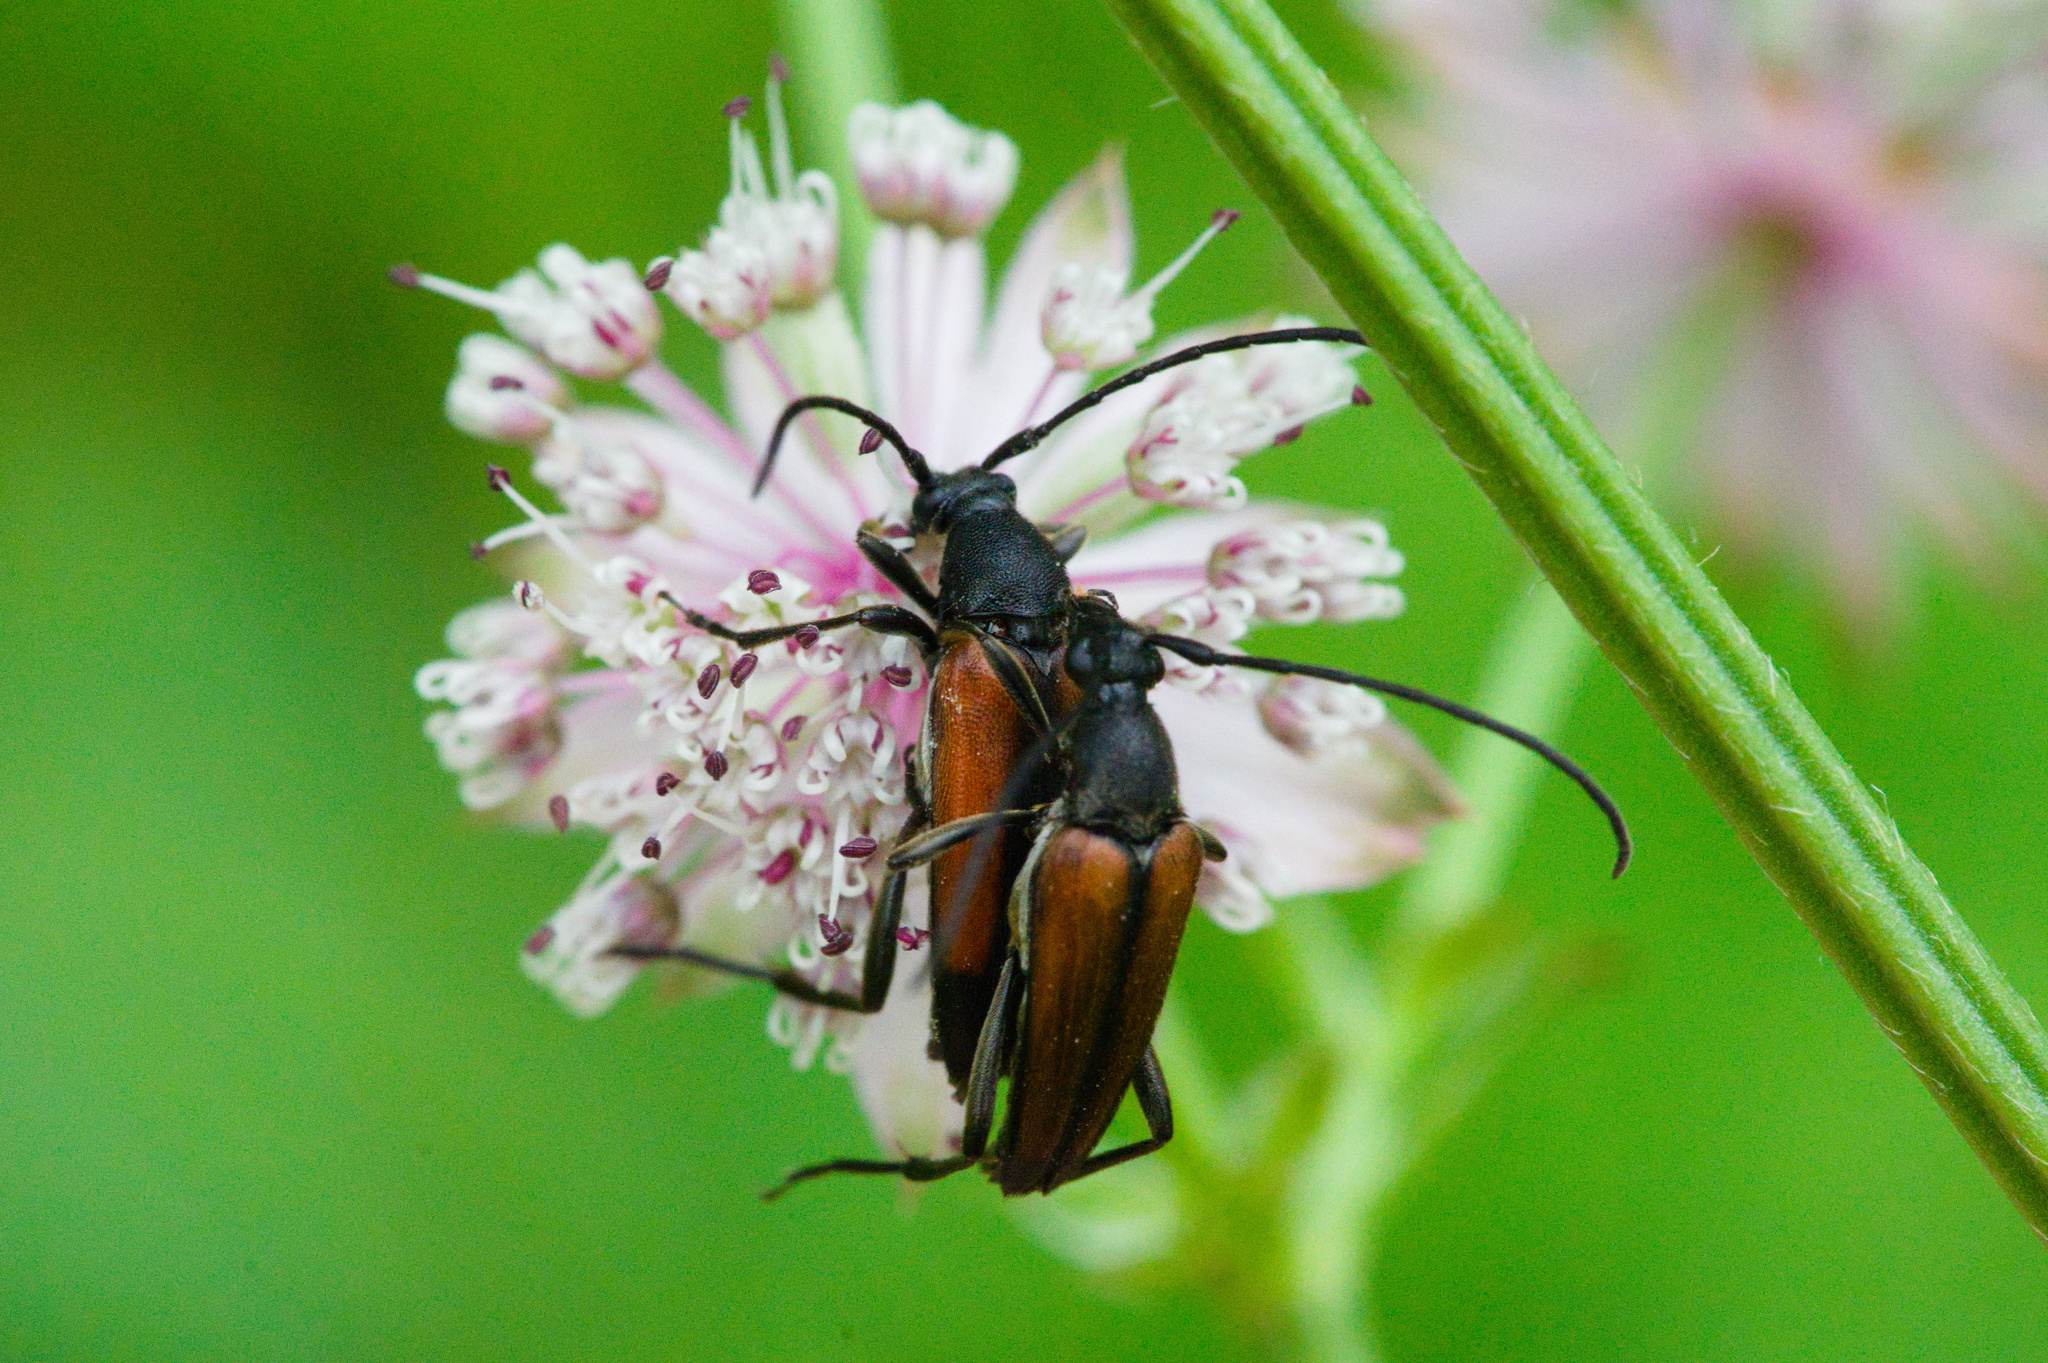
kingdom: Animalia
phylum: Arthropoda
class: Insecta
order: Coleoptera
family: Cerambycidae
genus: Stenurella
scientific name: Stenurella melanura
